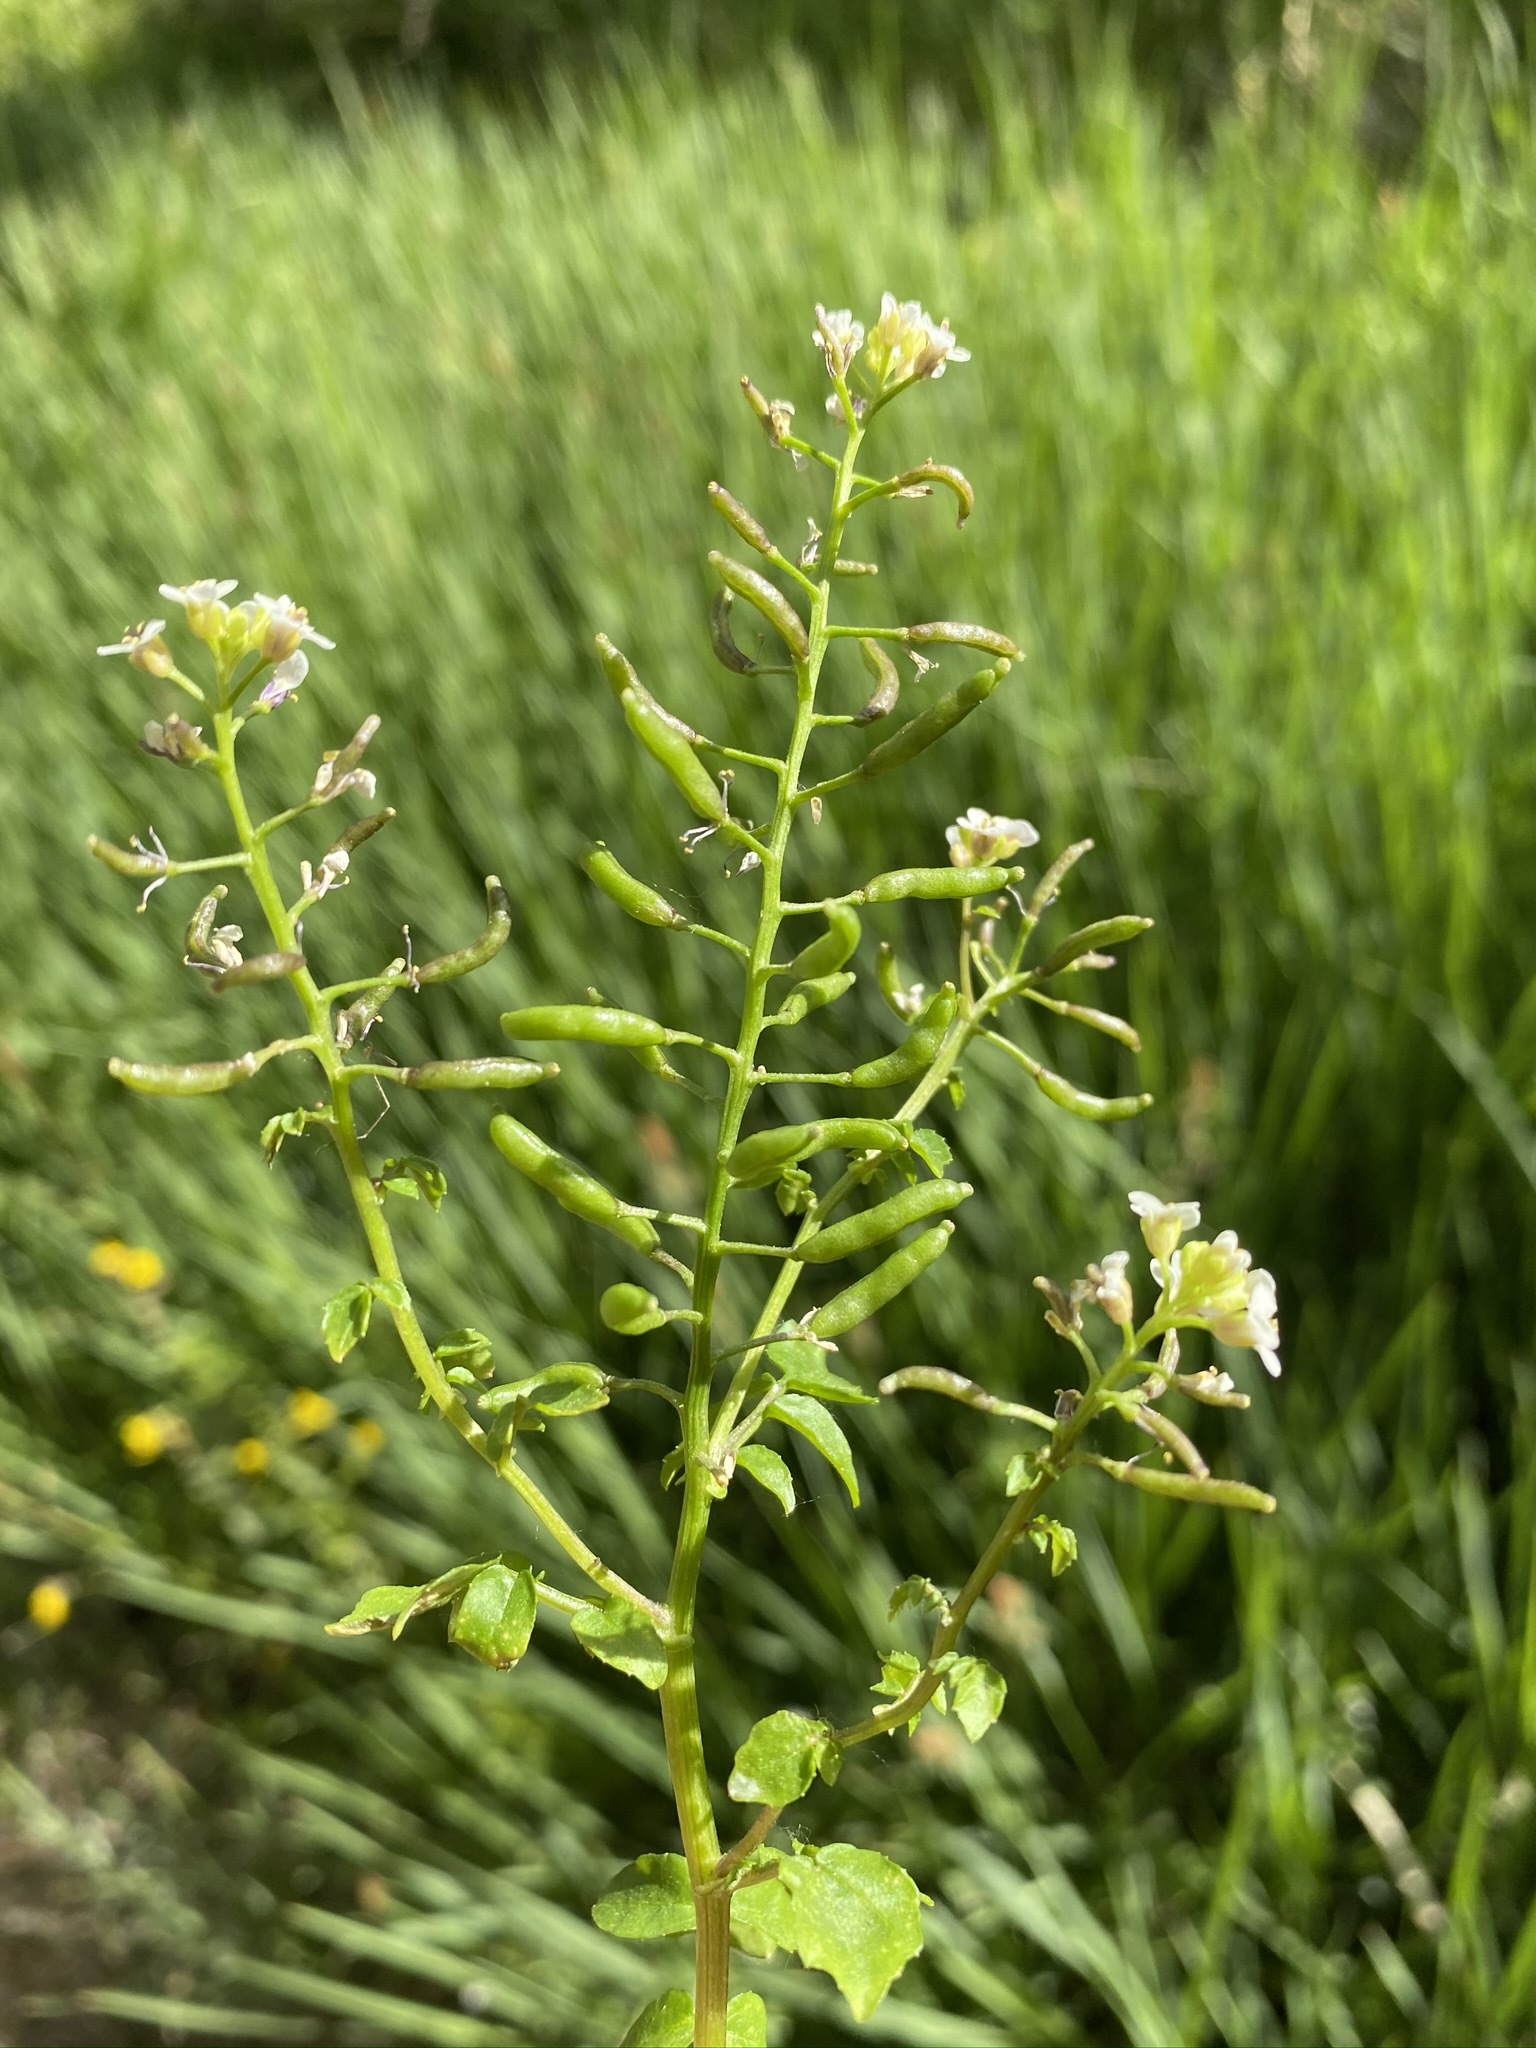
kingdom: Plantae
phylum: Tracheophyta
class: Magnoliopsida
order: Brassicales
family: Brassicaceae
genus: Nasturtium
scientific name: Nasturtium officinale
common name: Watercress
